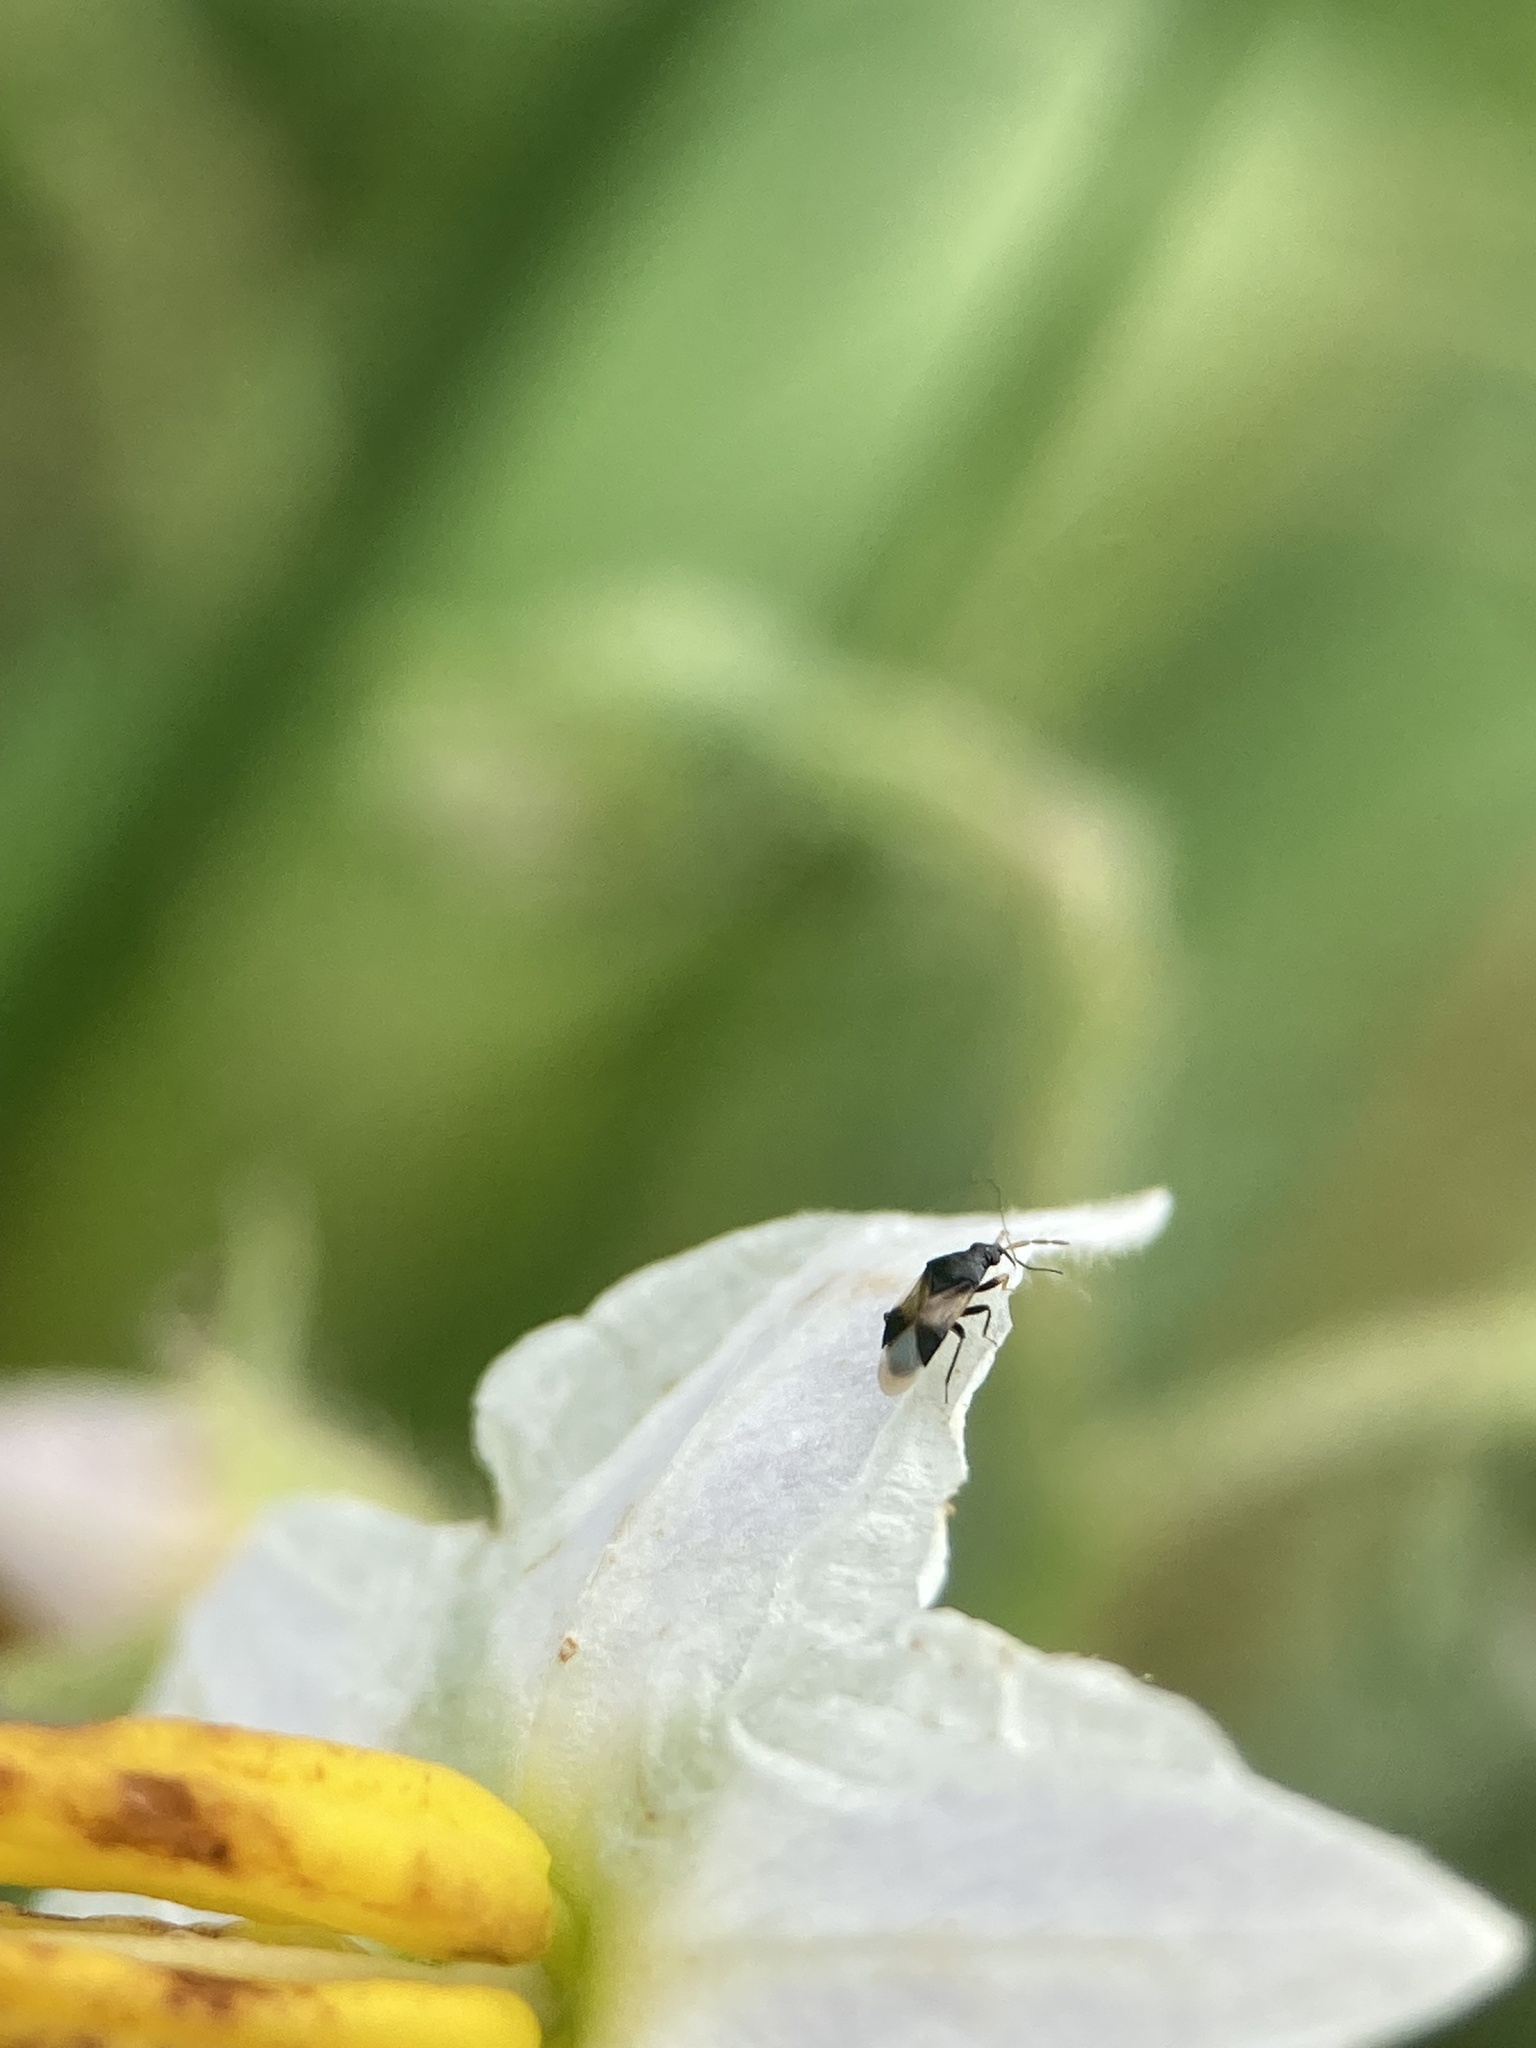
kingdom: Animalia
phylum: Arthropoda
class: Insecta
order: Hemiptera
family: Anthocoridae
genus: Orius
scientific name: Orius insidiosus
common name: Insidious flower bug
